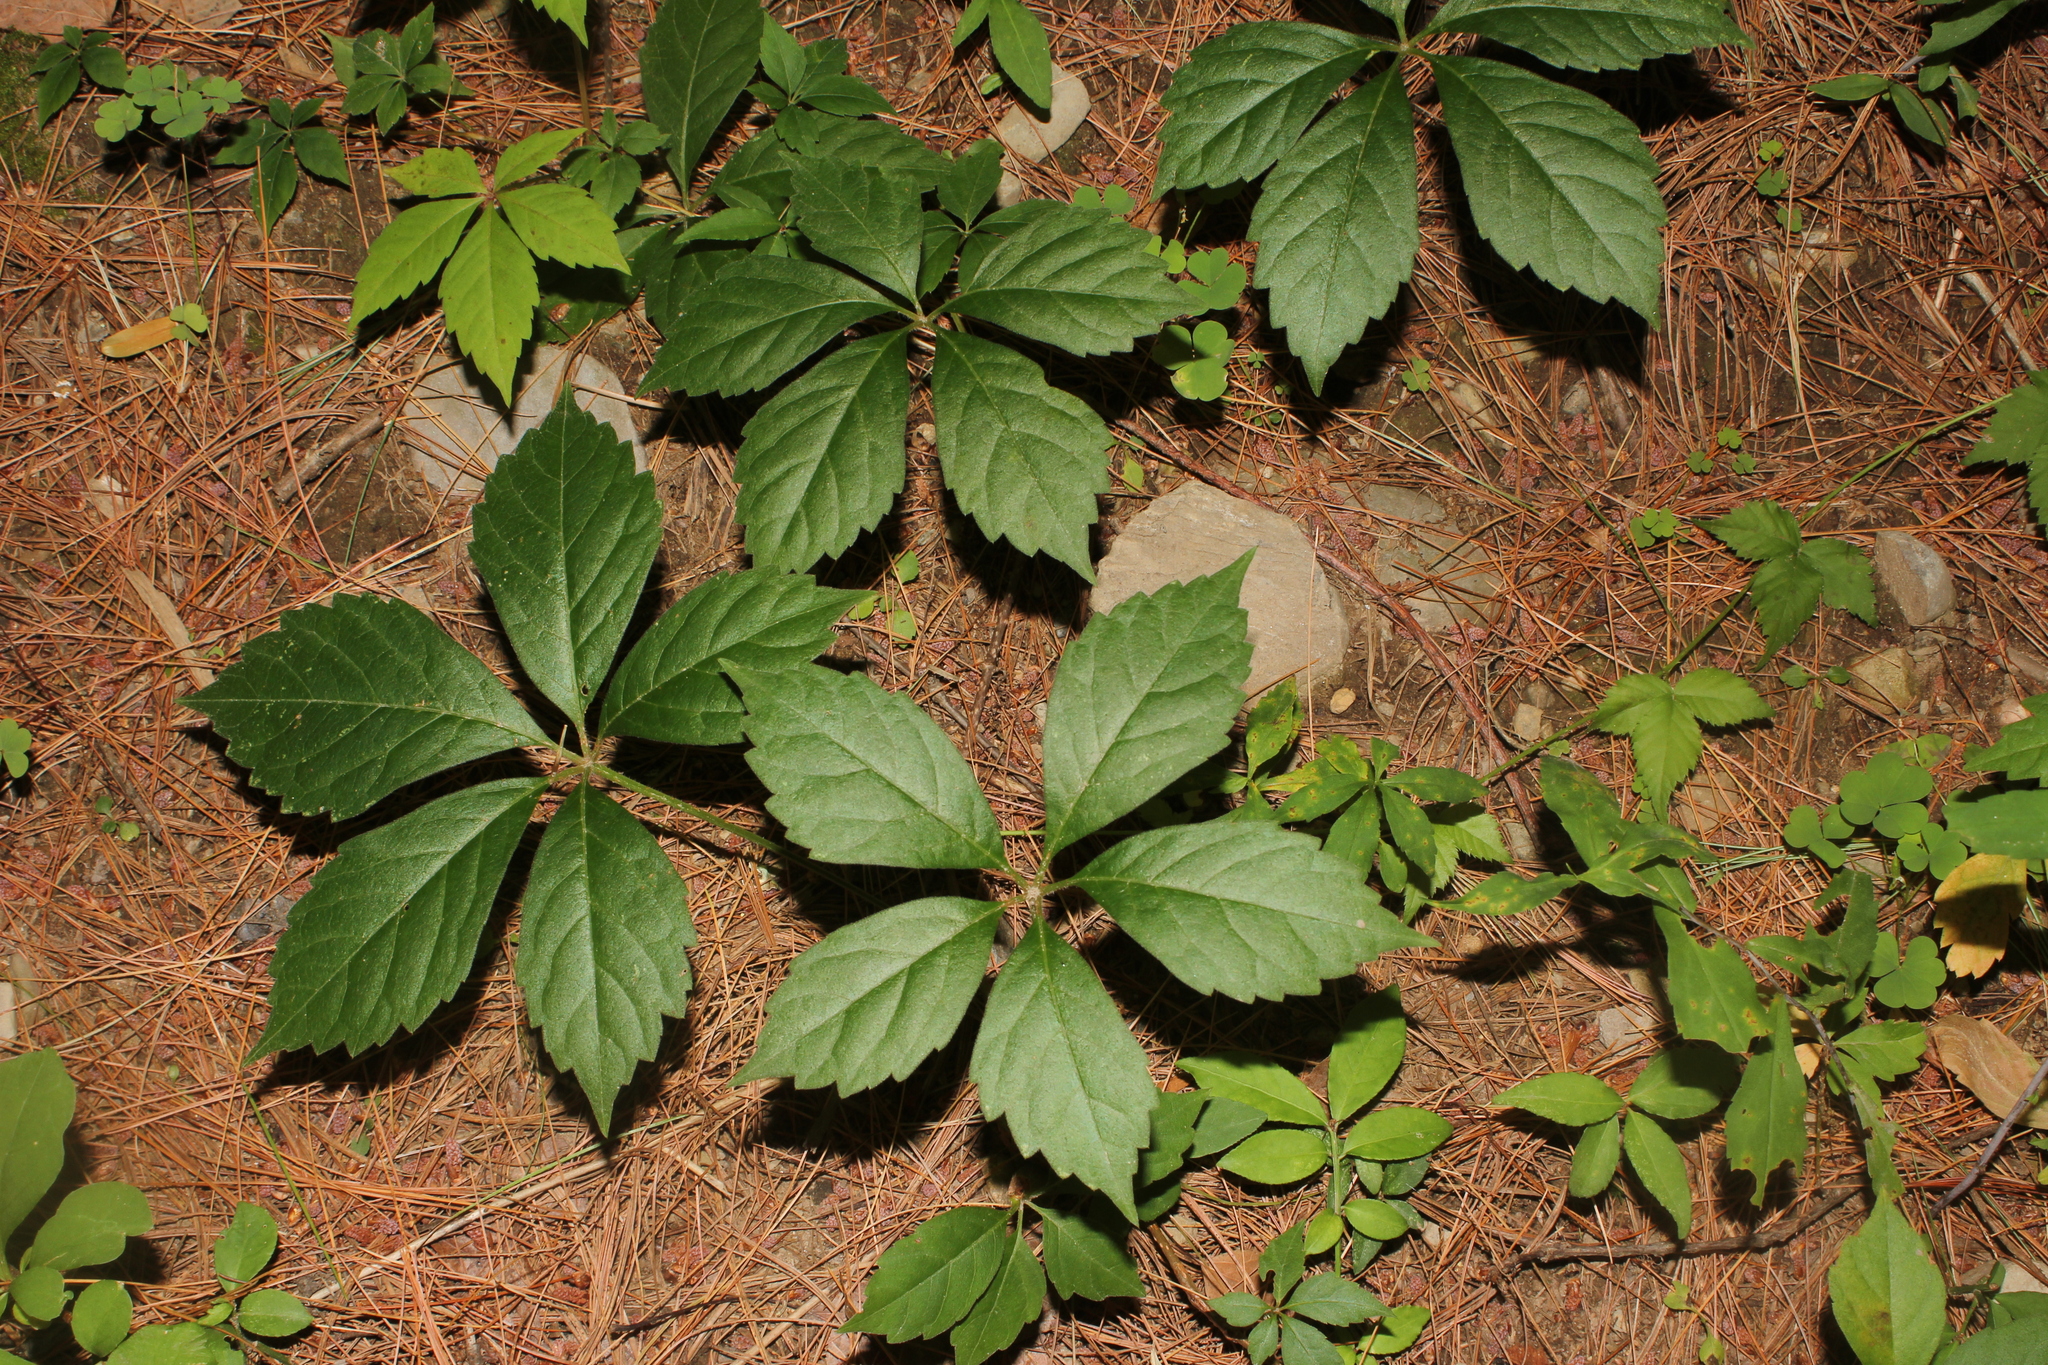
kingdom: Plantae
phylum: Tracheophyta
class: Magnoliopsida
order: Vitales
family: Vitaceae
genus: Parthenocissus
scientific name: Parthenocissus quinquefolia
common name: Virginia-creeper
